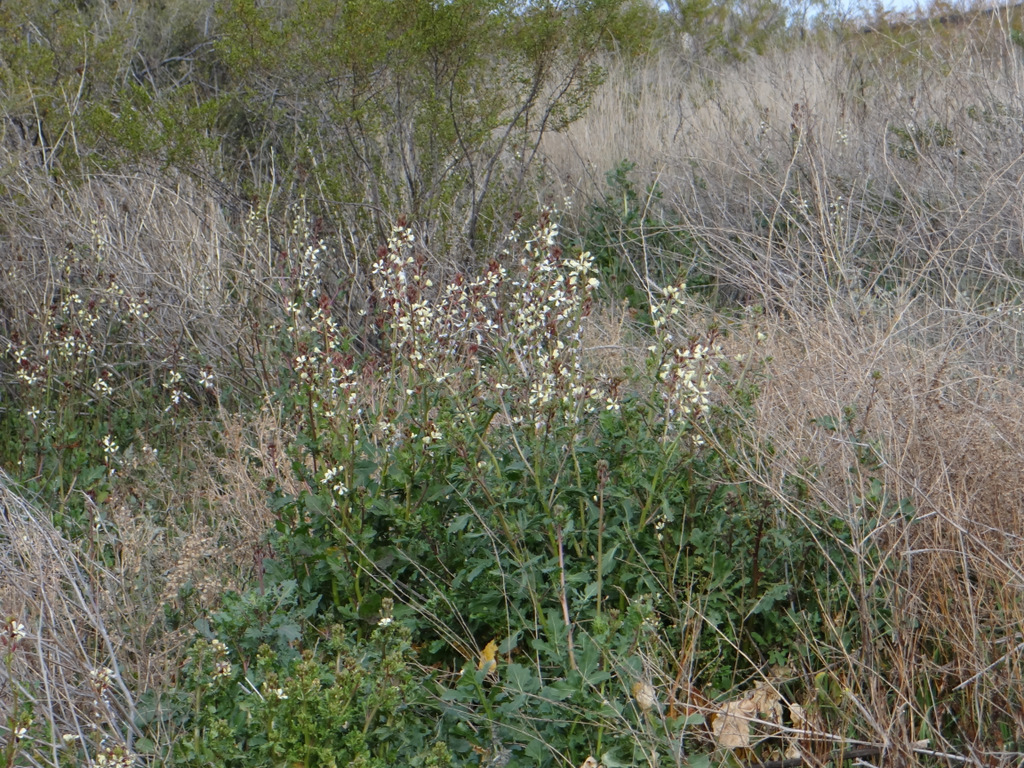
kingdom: Plantae
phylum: Tracheophyta
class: Magnoliopsida
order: Brassicales
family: Brassicaceae
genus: Eruca
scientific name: Eruca vesicaria
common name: Garden rocket
